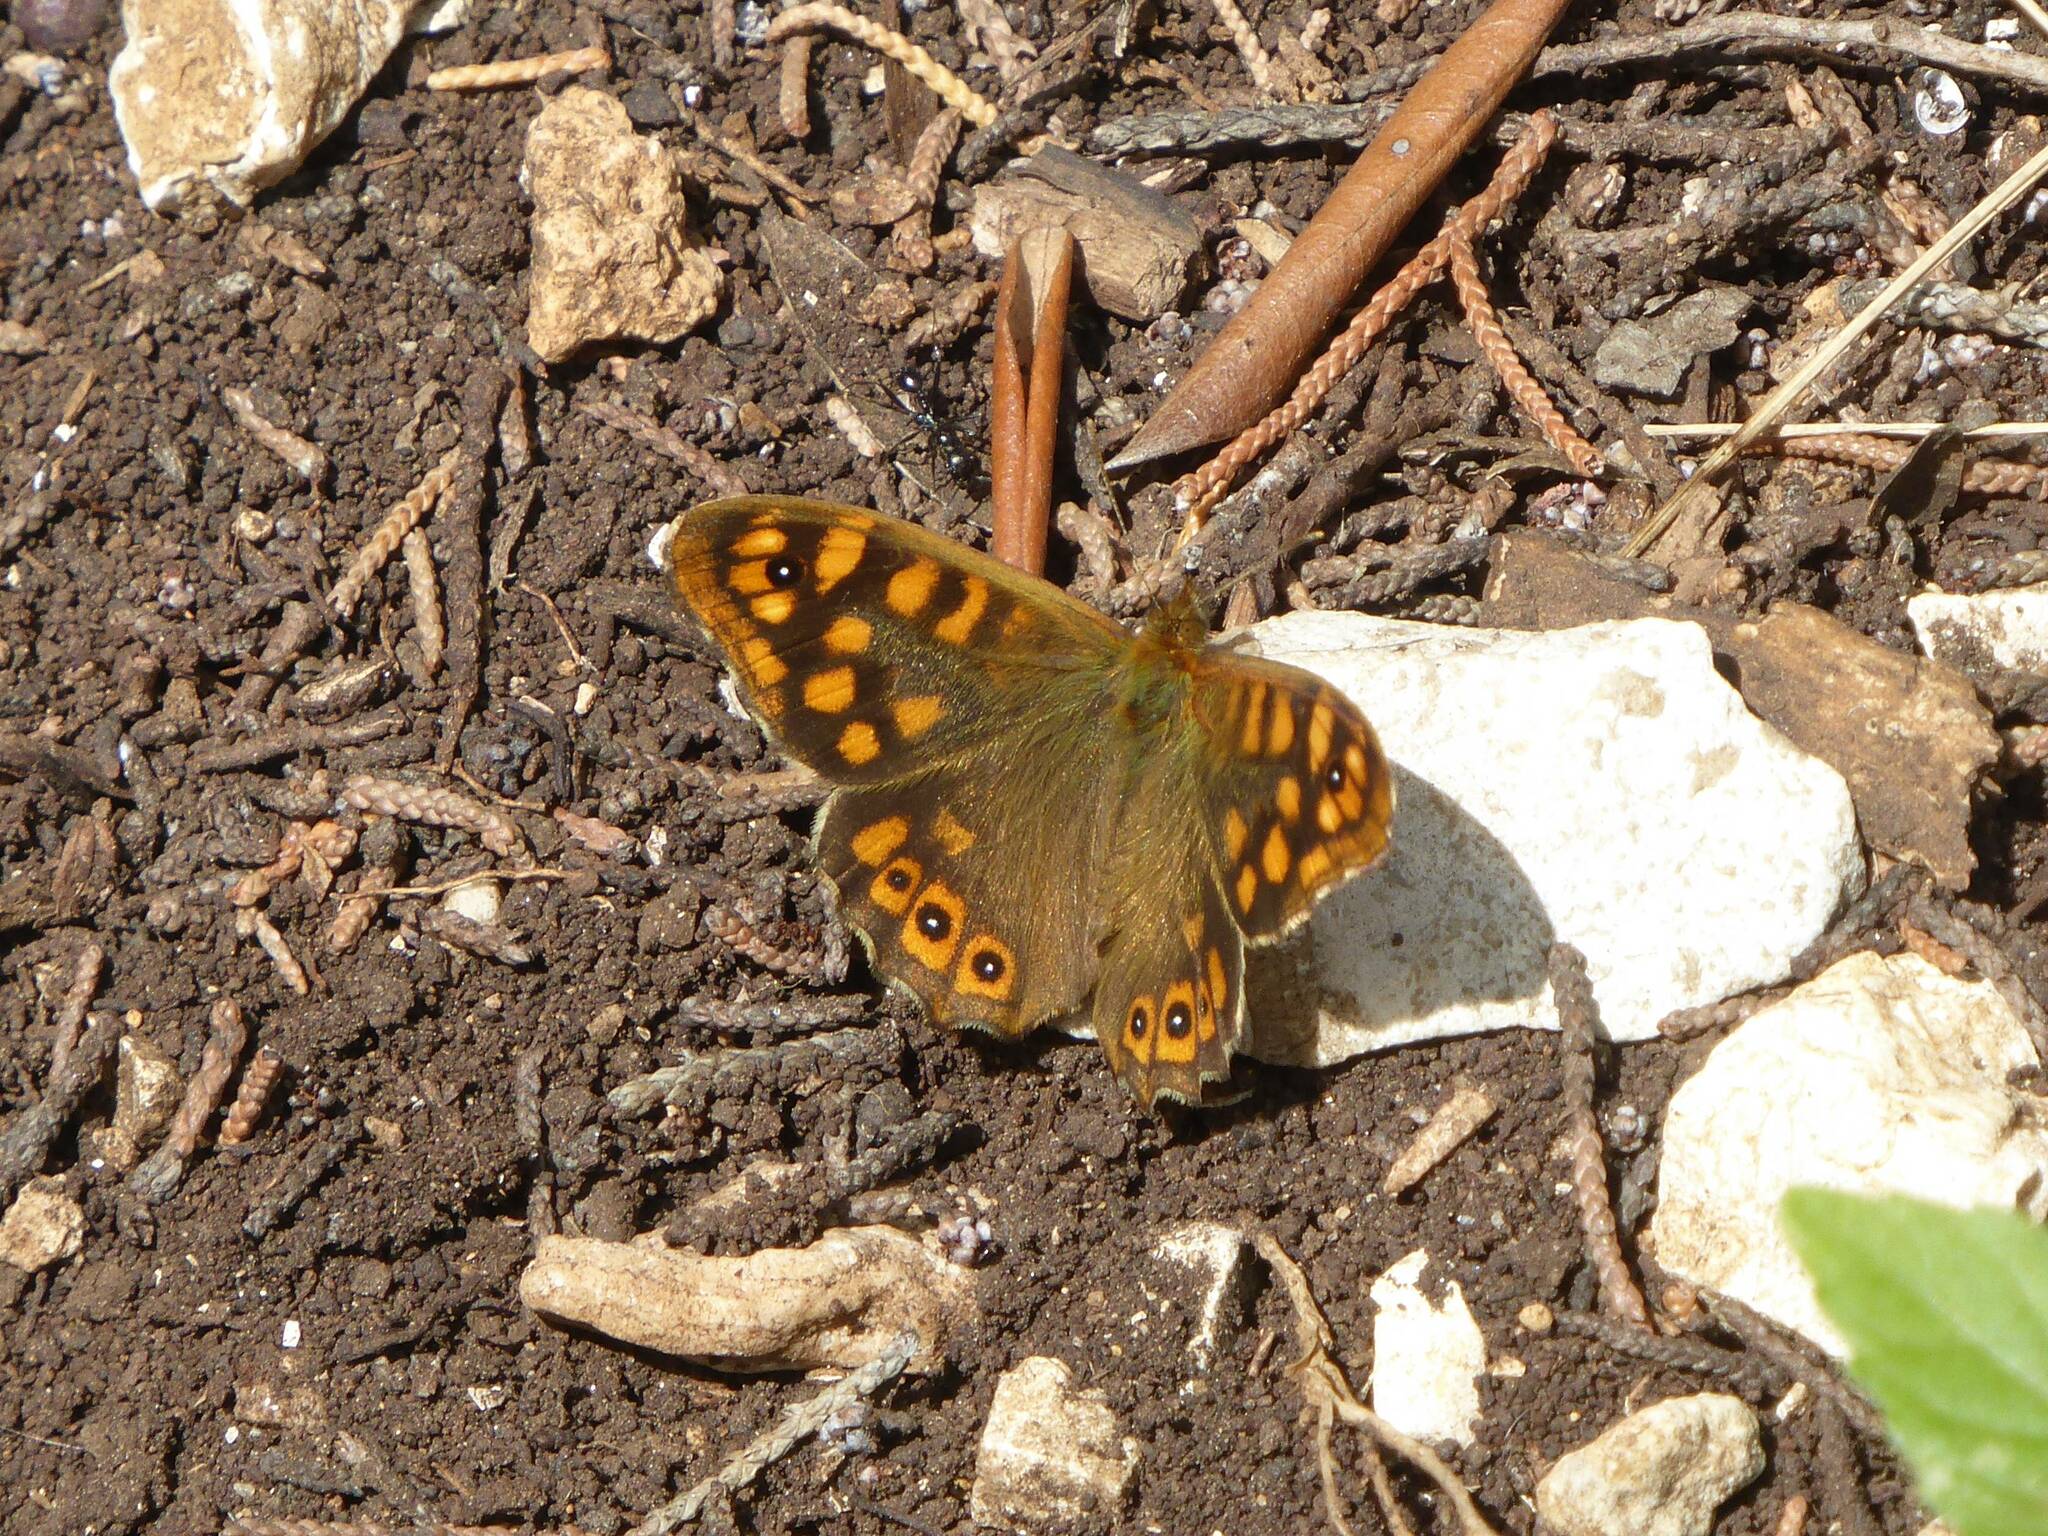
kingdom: Animalia
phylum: Arthropoda
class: Insecta
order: Lepidoptera
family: Nymphalidae
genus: Pararge
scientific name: Pararge aegeria
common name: Speckled wood
